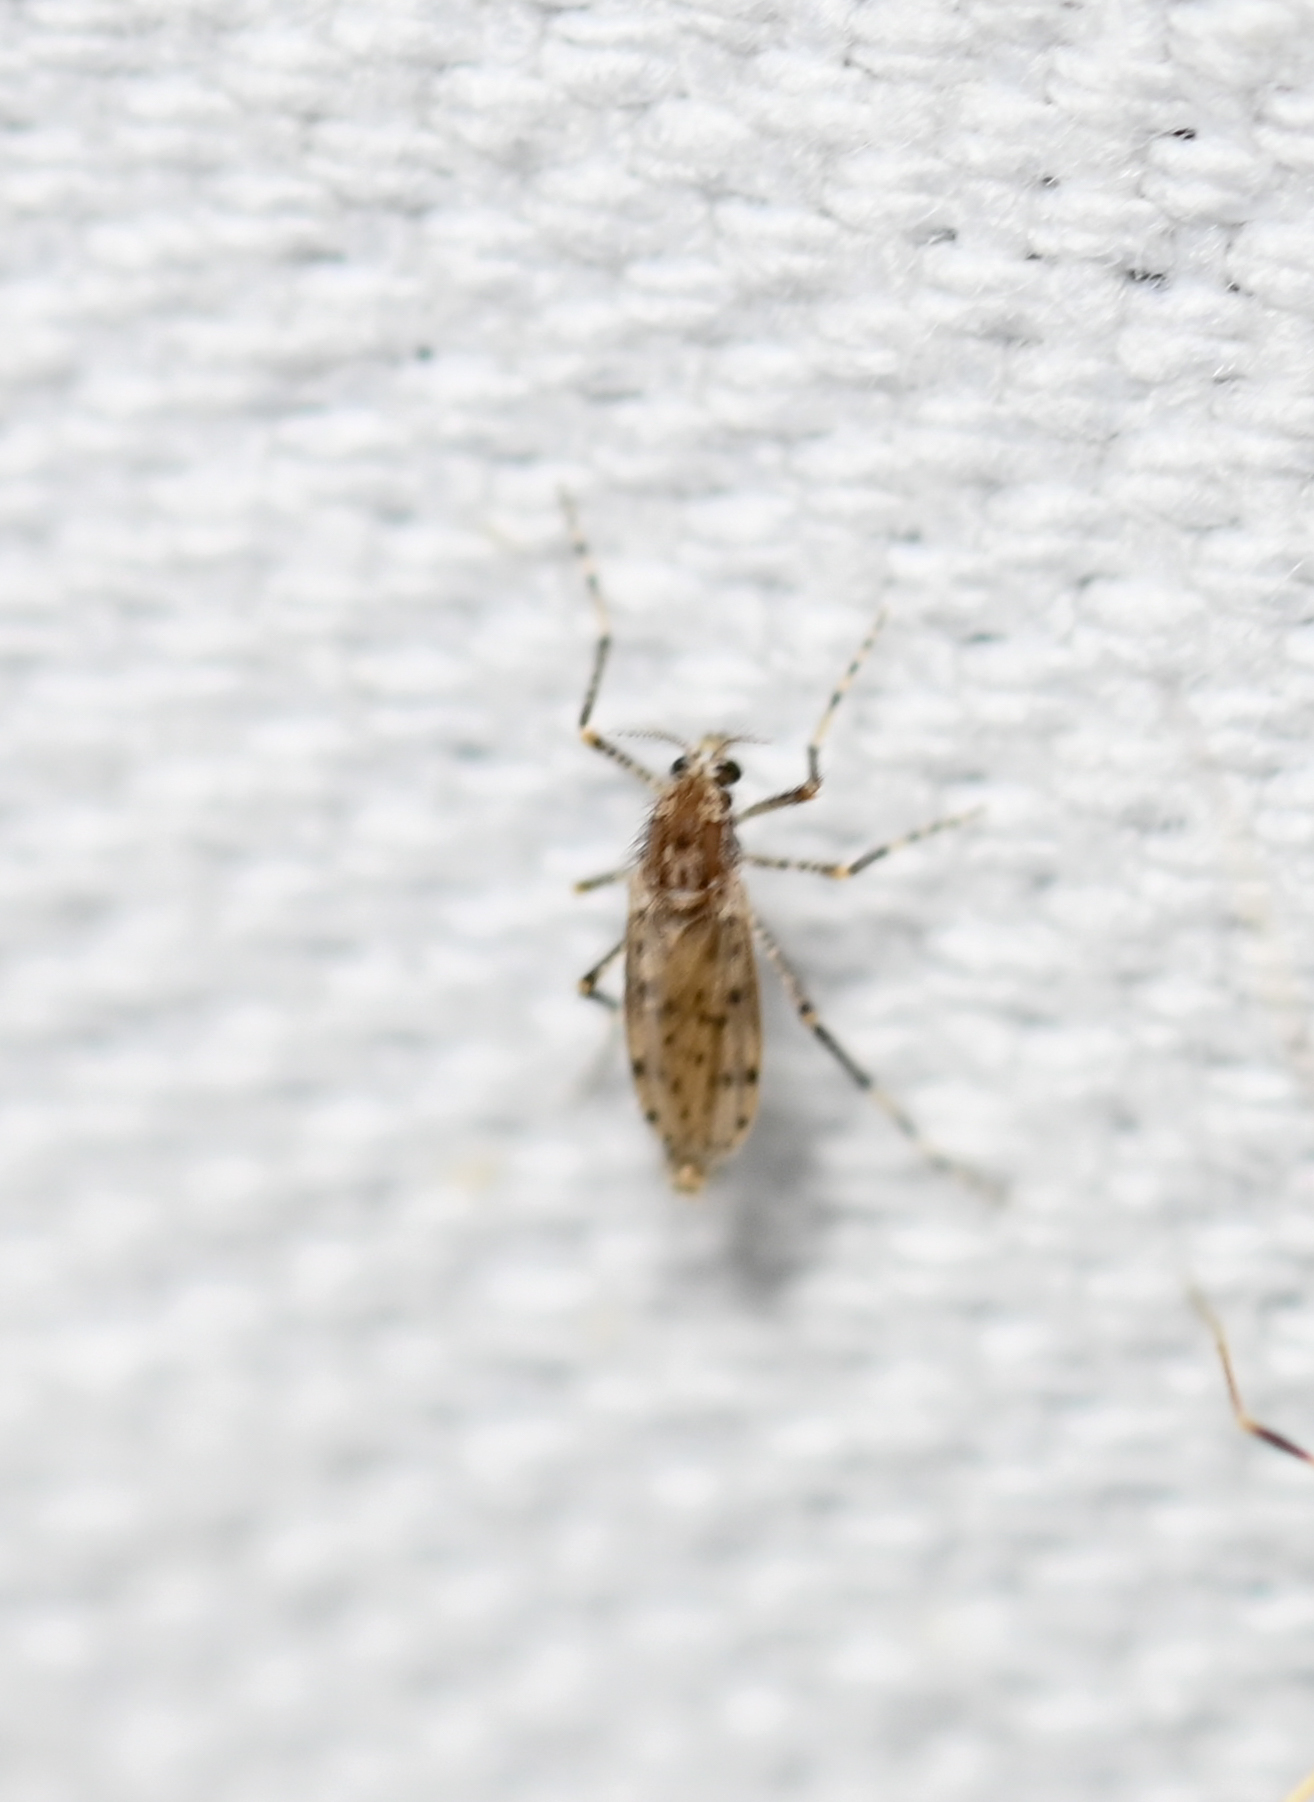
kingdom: Animalia
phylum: Arthropoda
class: Insecta
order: Diptera
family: Chaoboridae
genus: Chaoborus
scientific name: Chaoborus punctipennis
